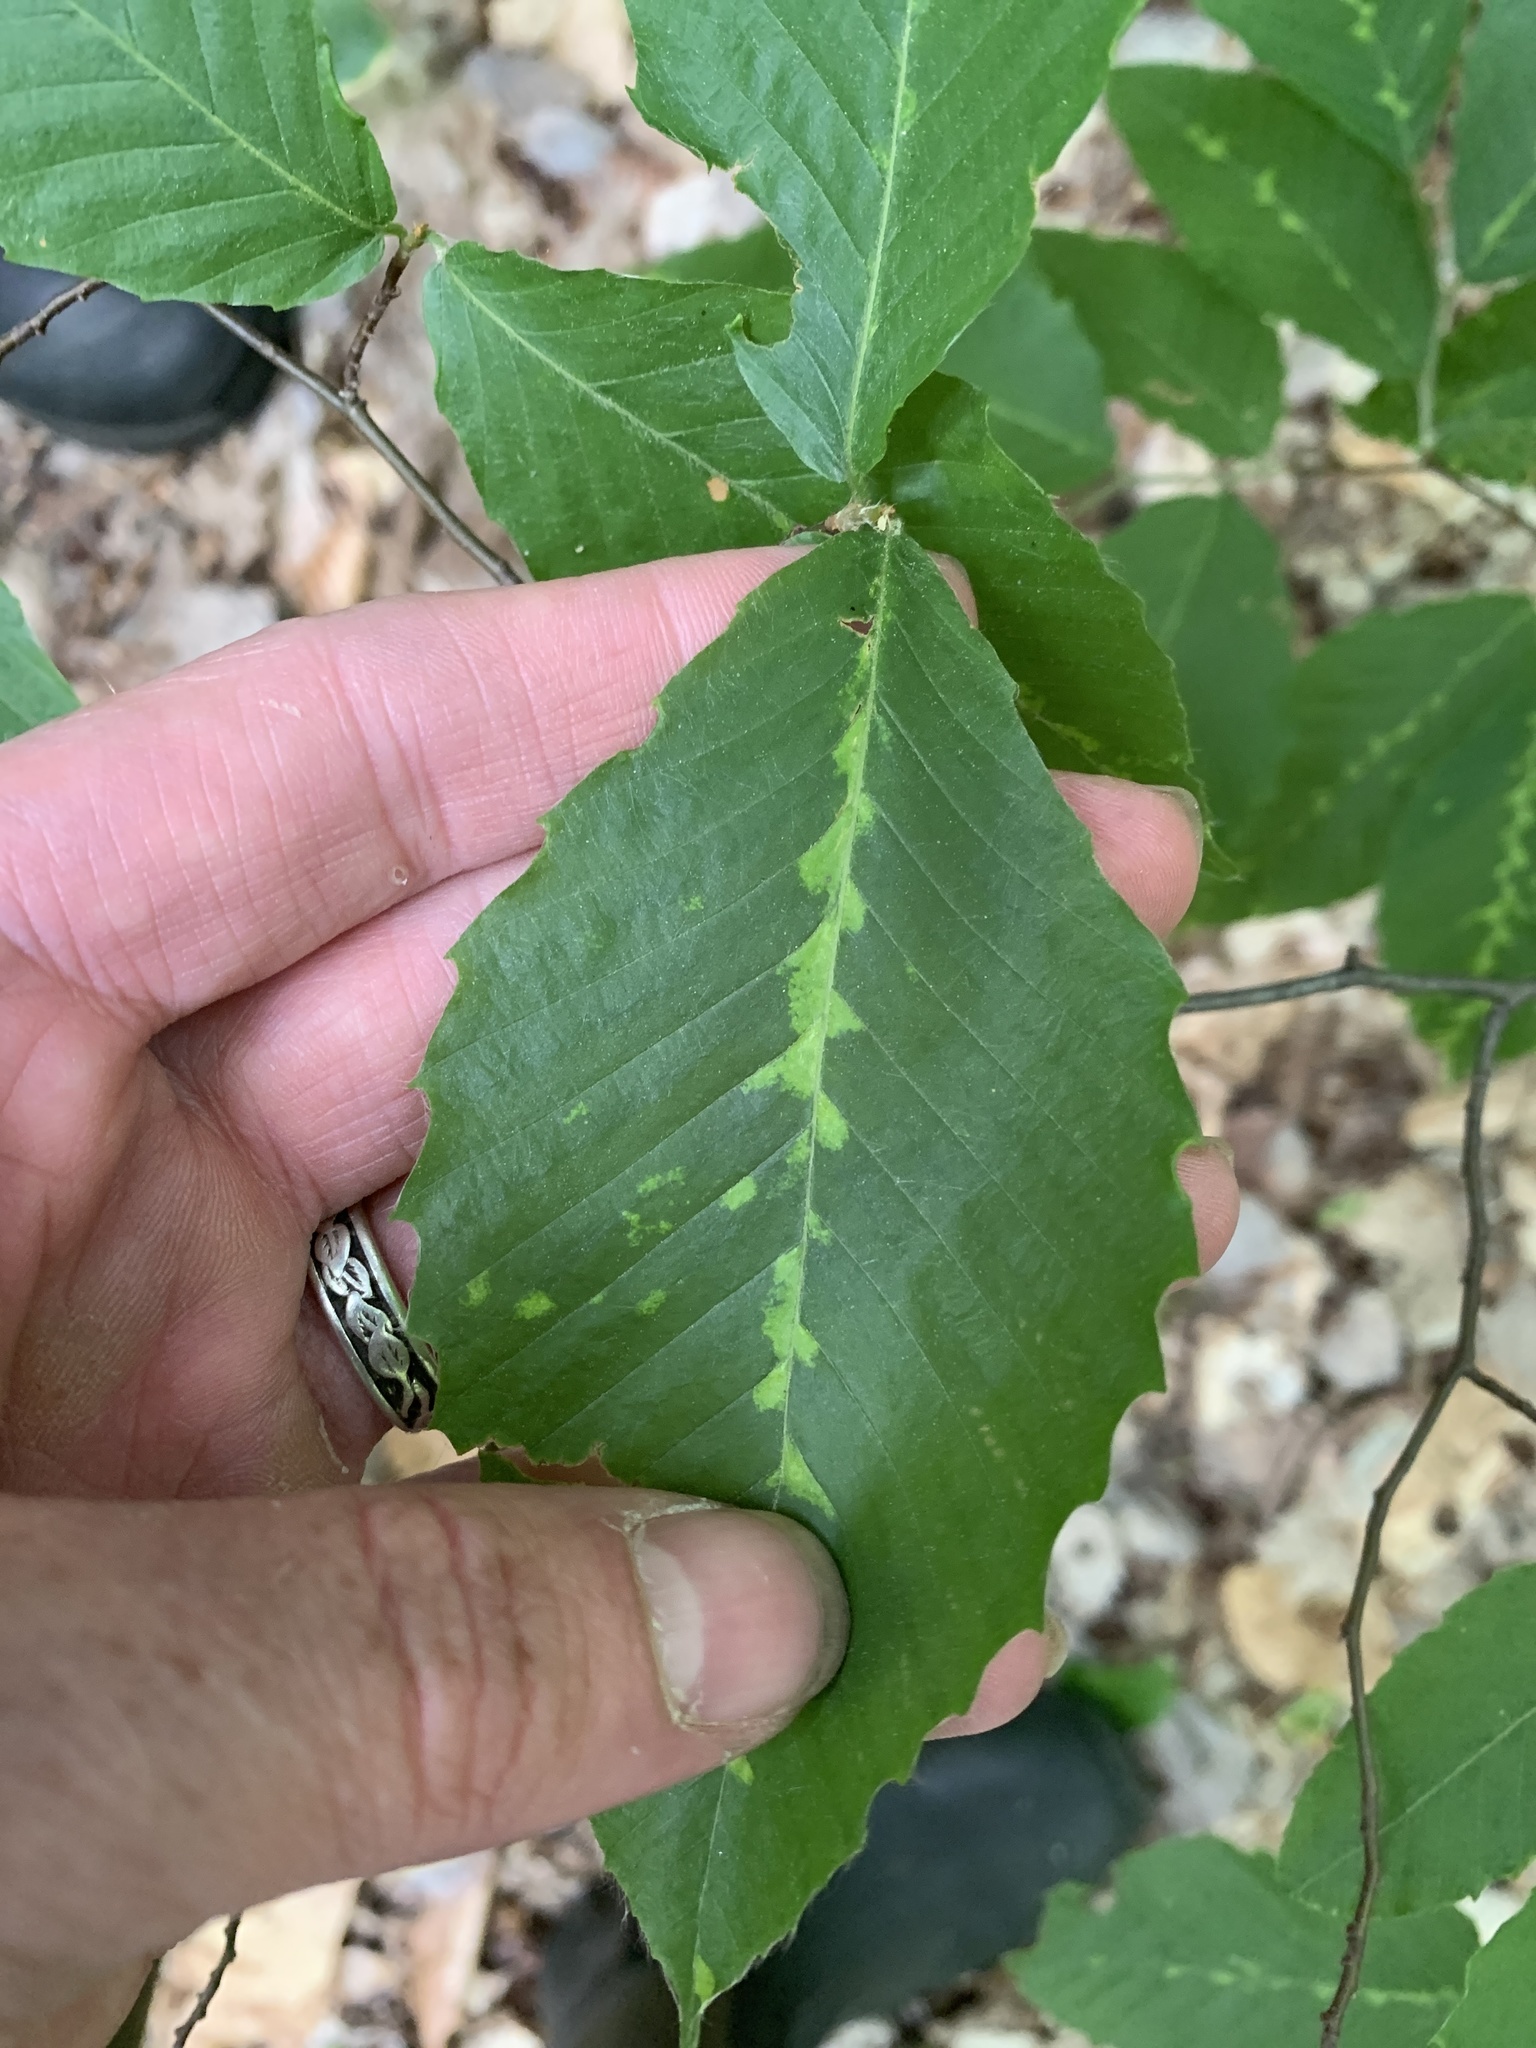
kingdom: Animalia
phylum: Arthropoda
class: Arachnida
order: Trombidiformes
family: Eriophyidae
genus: Acalitus
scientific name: Acalitus
